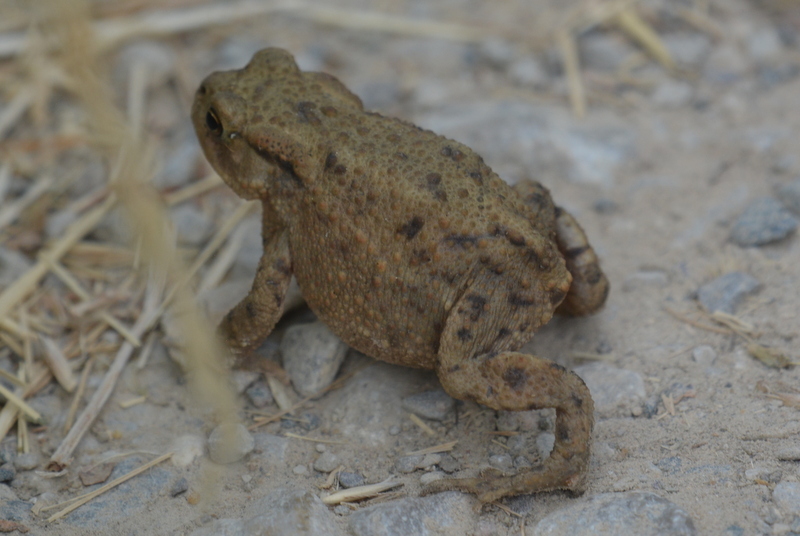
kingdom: Animalia
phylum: Chordata
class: Amphibia
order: Anura
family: Bufonidae
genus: Bufo
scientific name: Bufo bufo
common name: Common toad
